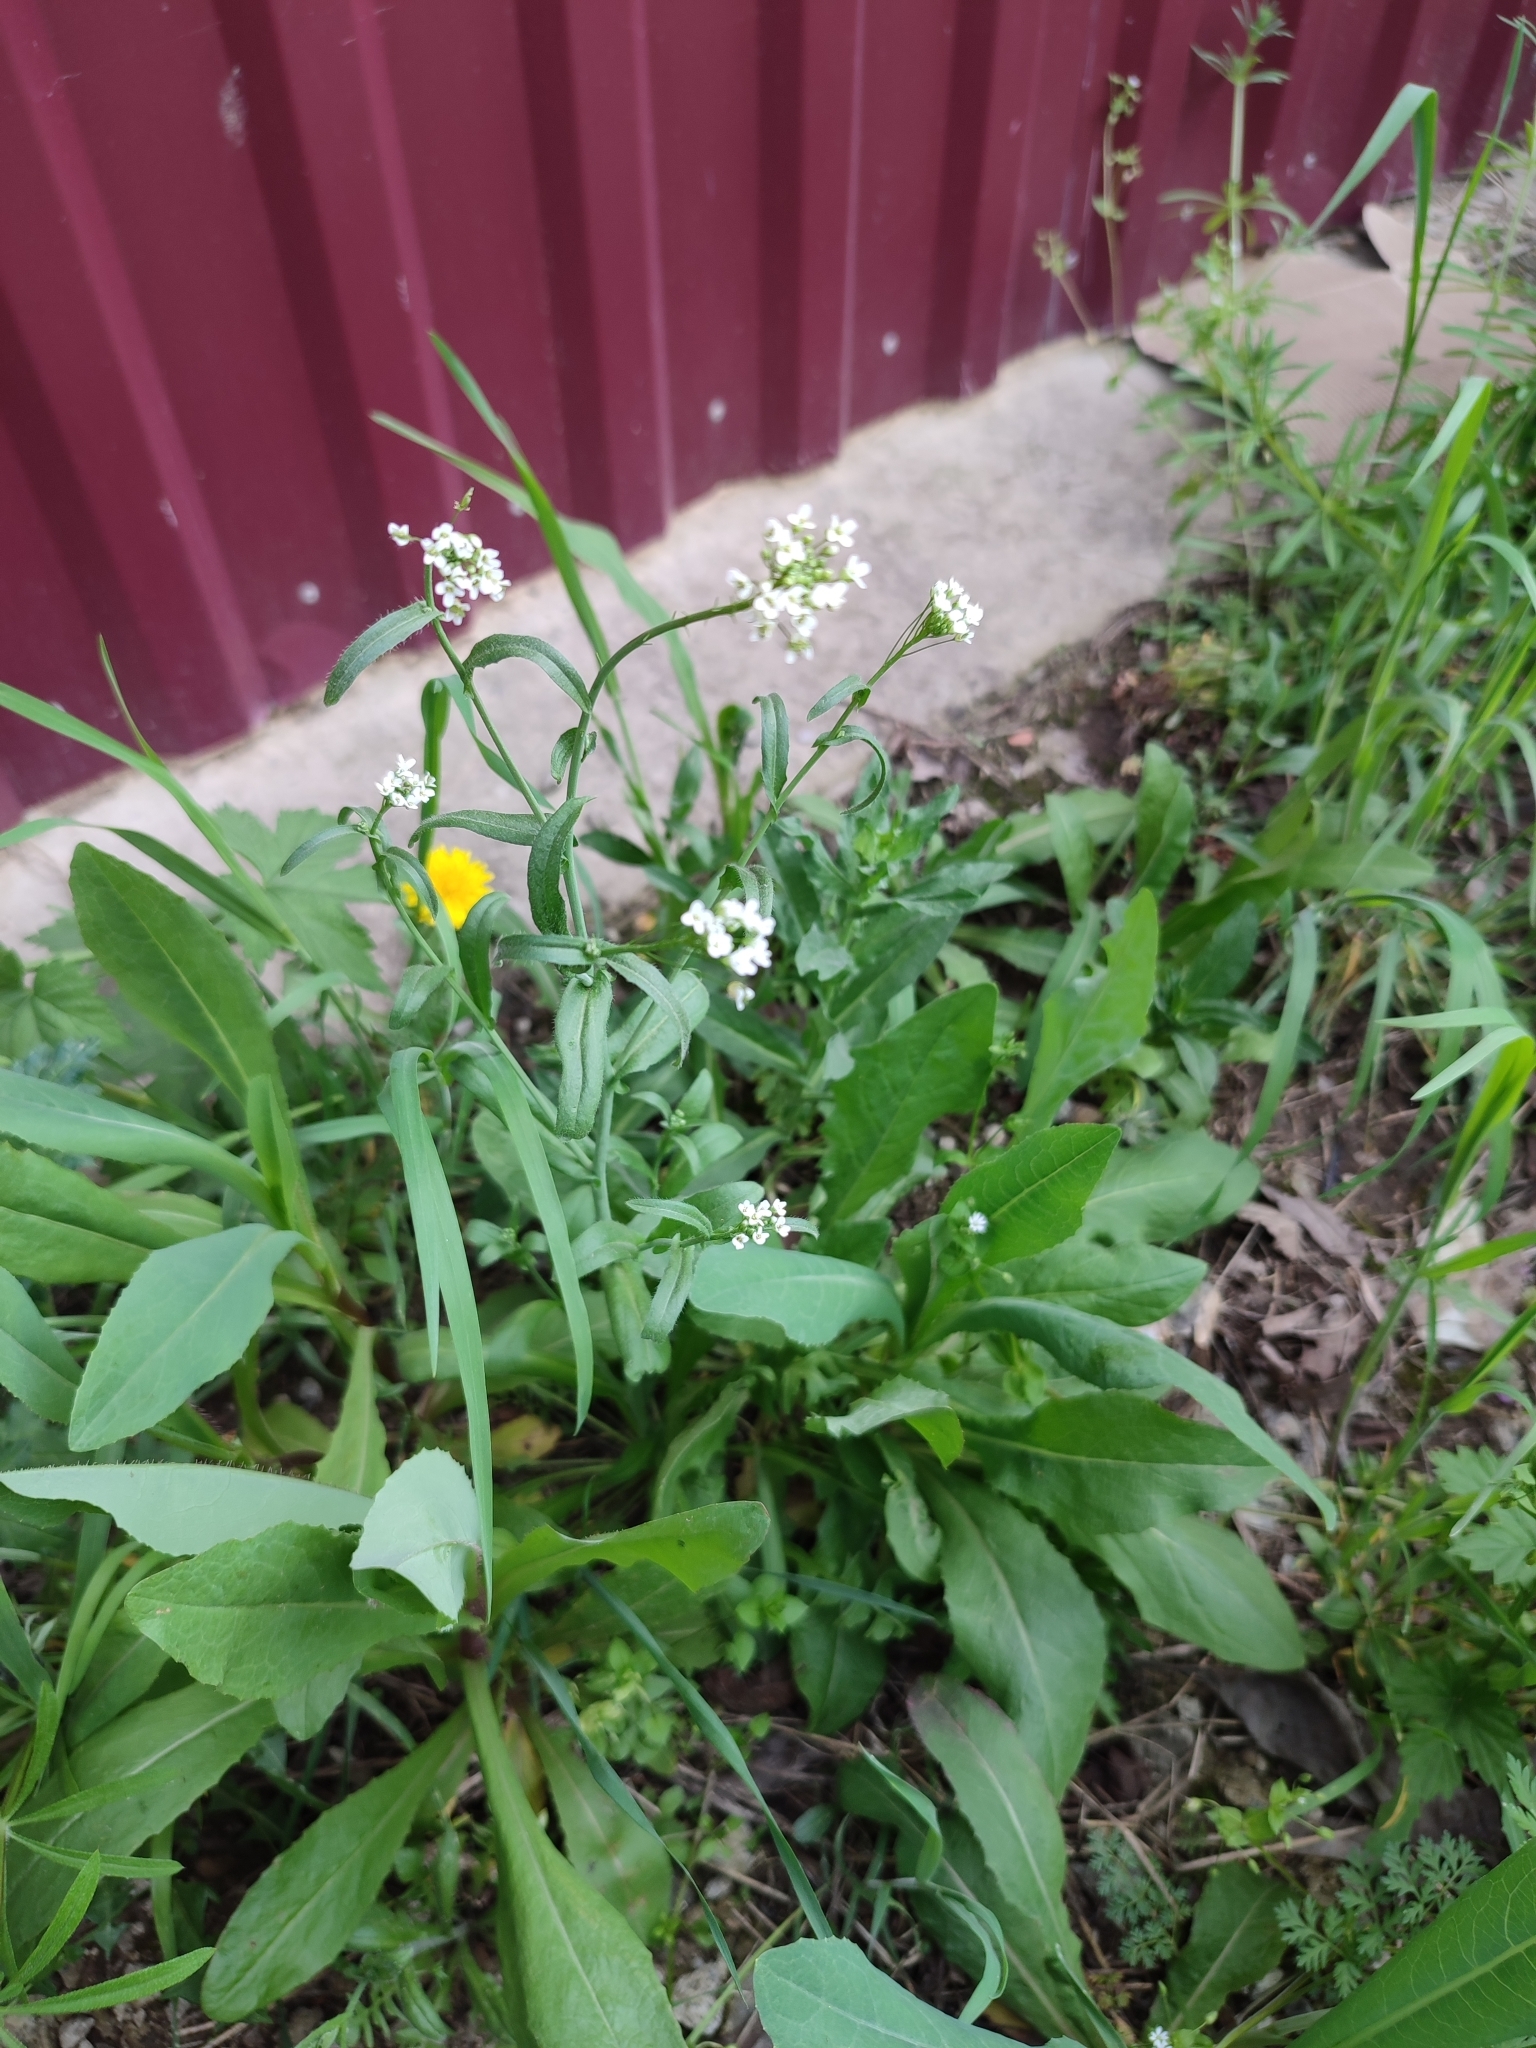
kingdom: Plantae
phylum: Tracheophyta
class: Magnoliopsida
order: Brassicales
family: Brassicaceae
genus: Capsella
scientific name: Capsella bursa-pastoris
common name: Shepherd's purse
